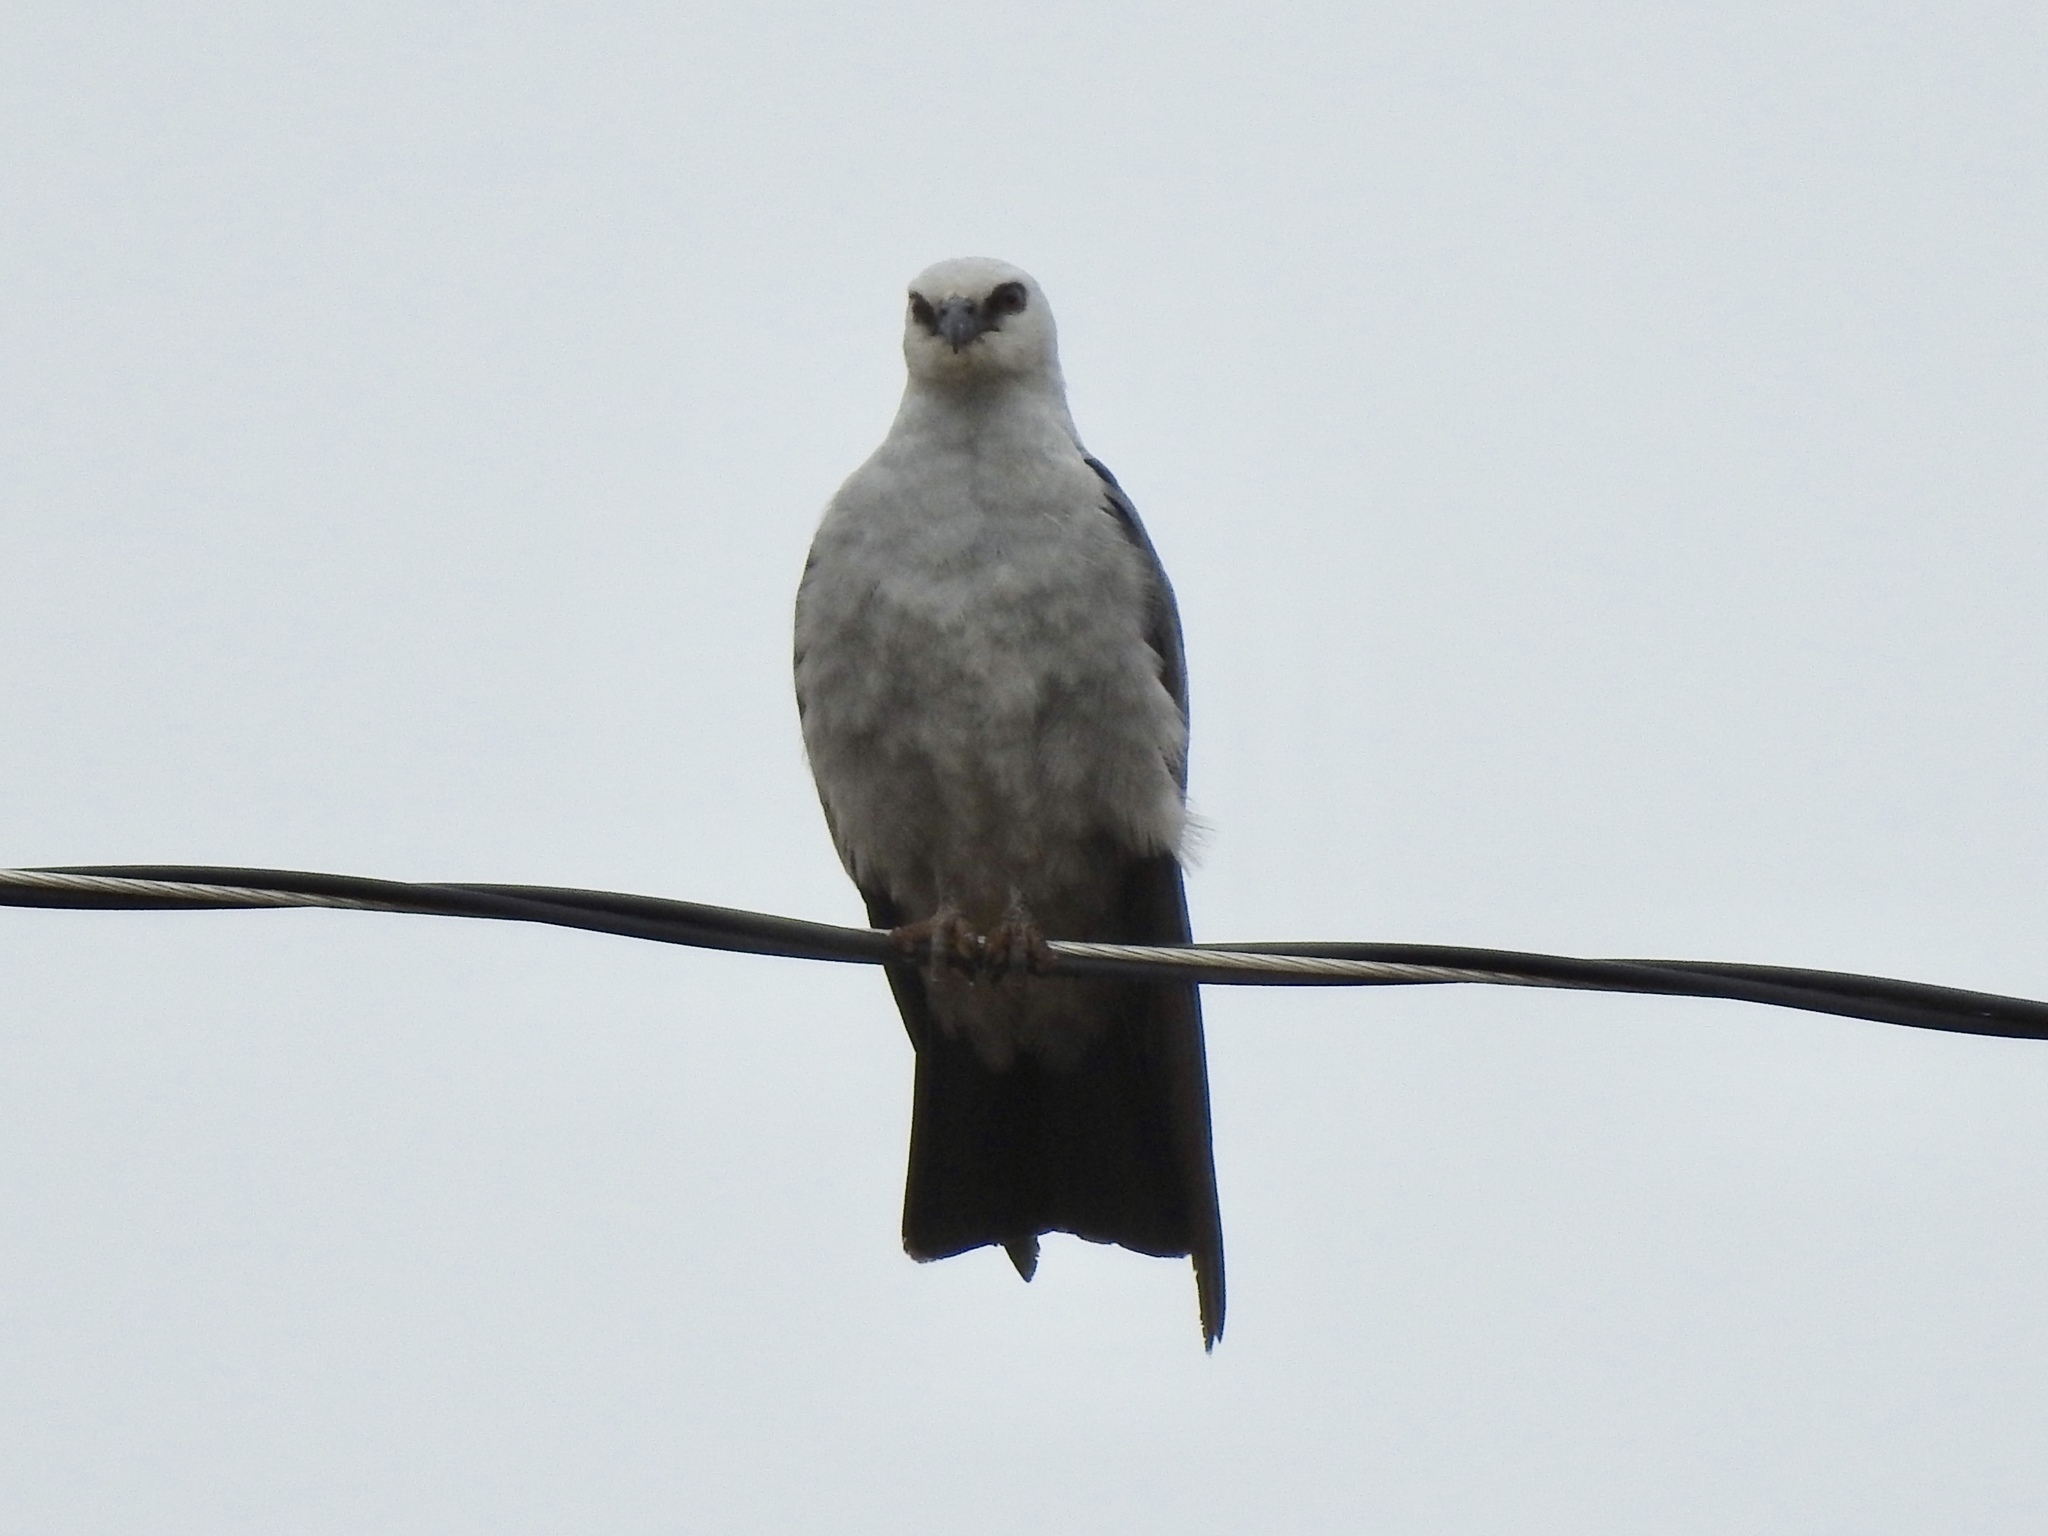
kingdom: Animalia
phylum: Chordata
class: Aves
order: Accipitriformes
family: Accipitridae
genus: Ictinia
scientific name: Ictinia mississippiensis
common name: Mississippi kite
